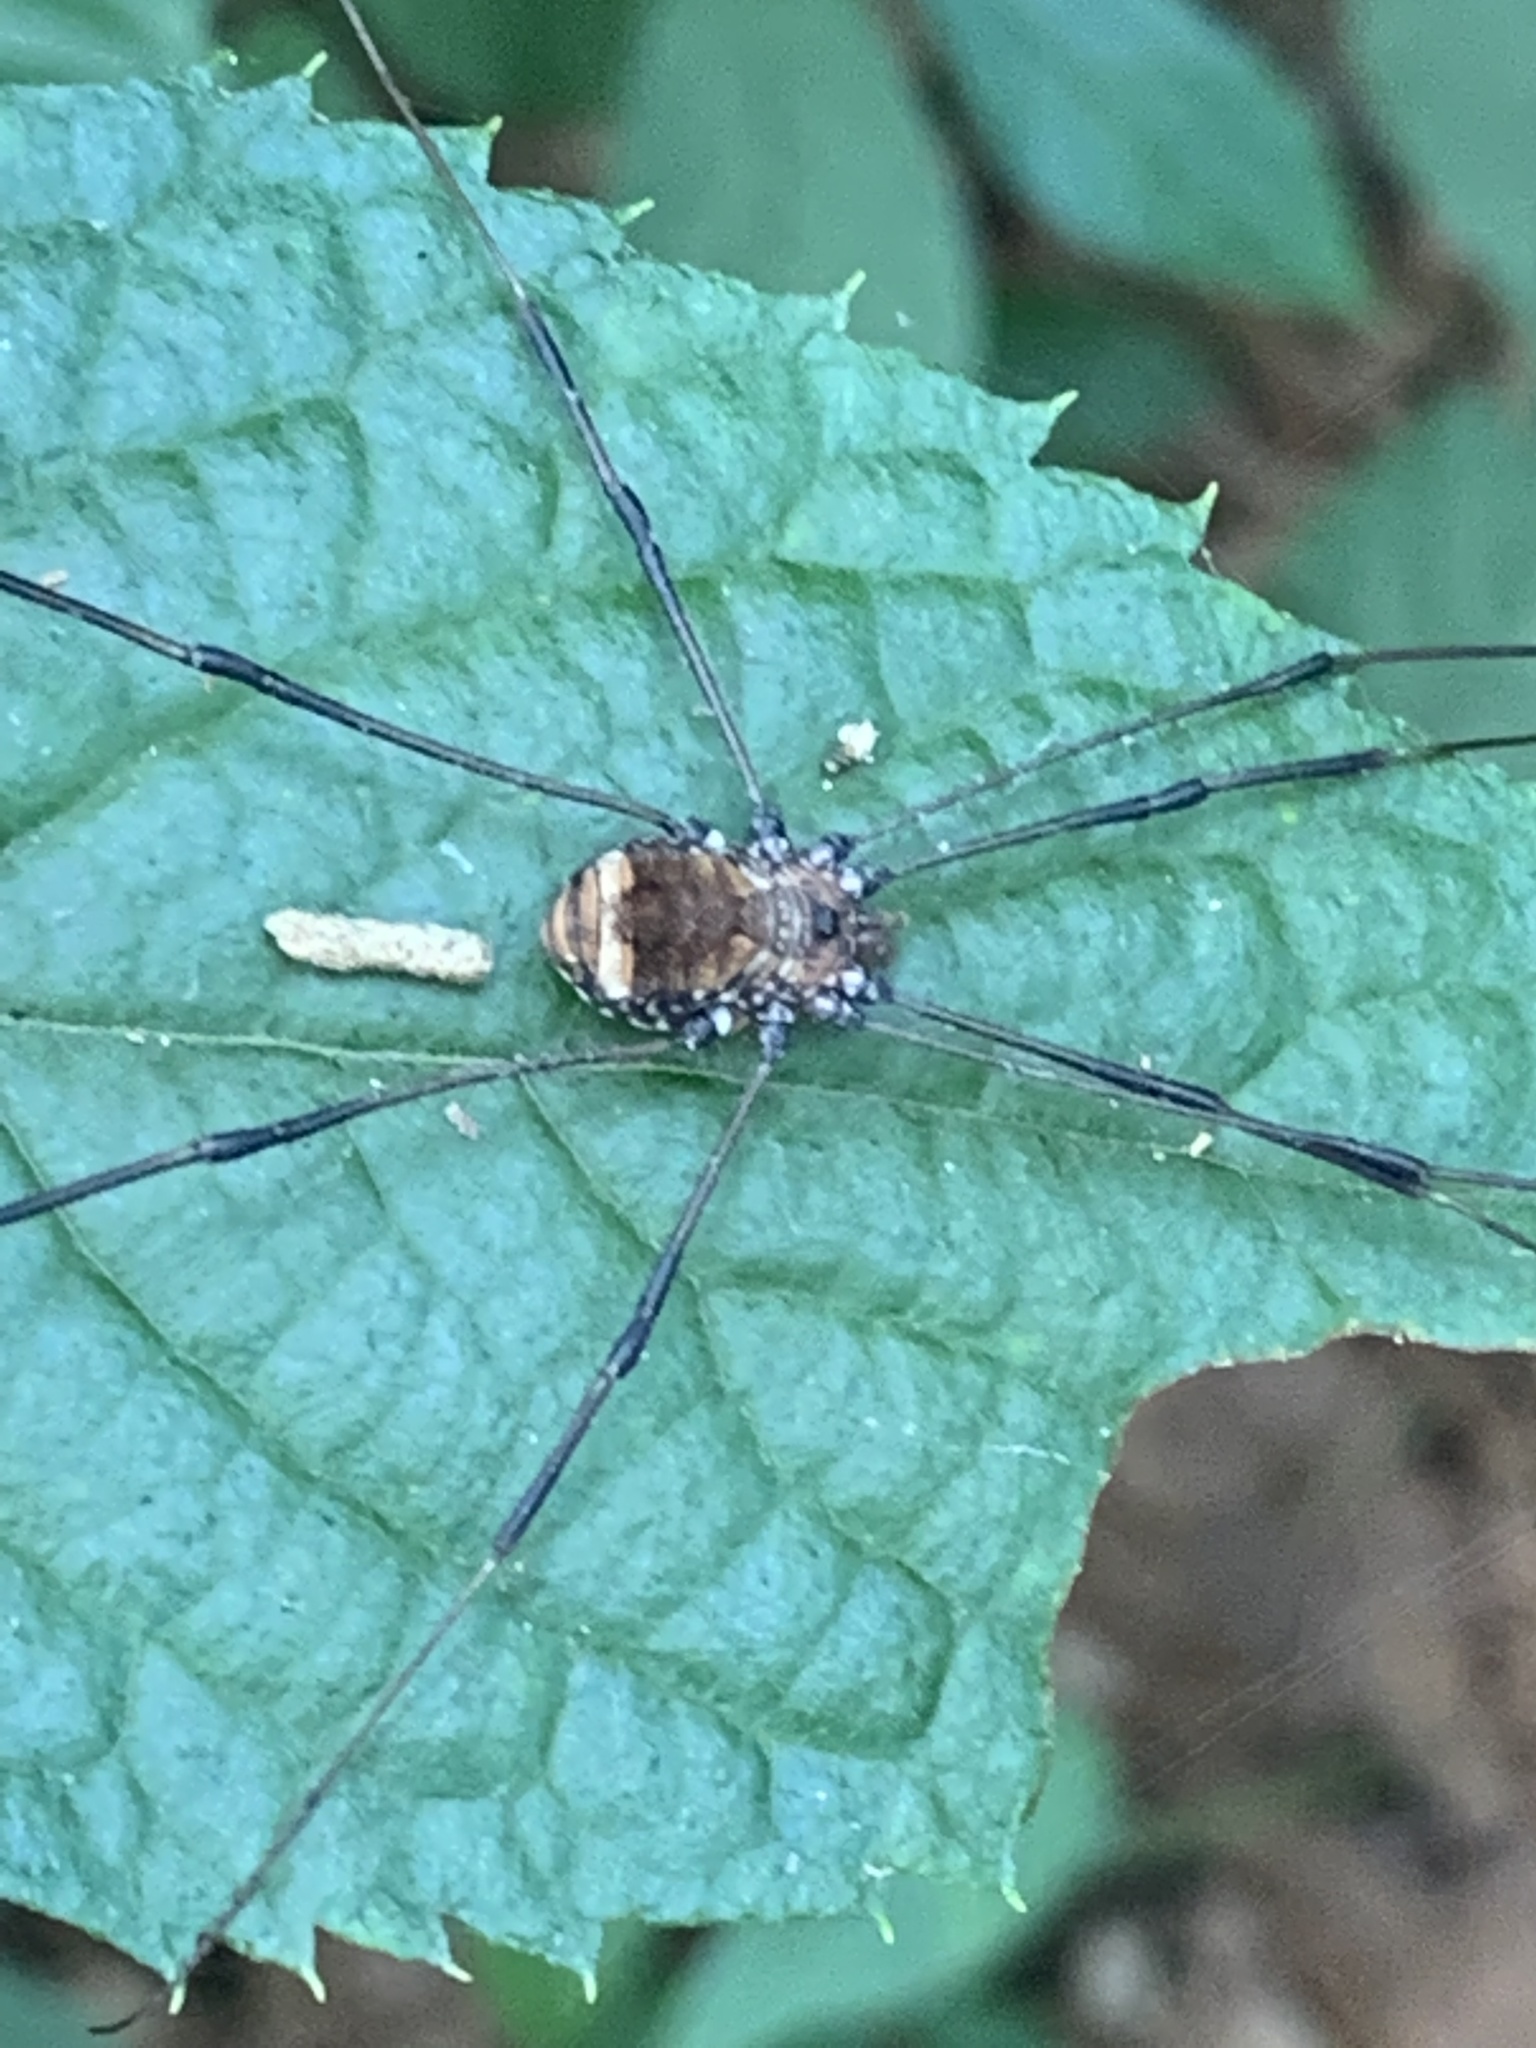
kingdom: Animalia
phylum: Arthropoda
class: Arachnida
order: Opiliones
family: Sclerosomatidae
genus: Leiobunum
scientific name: Leiobunum
